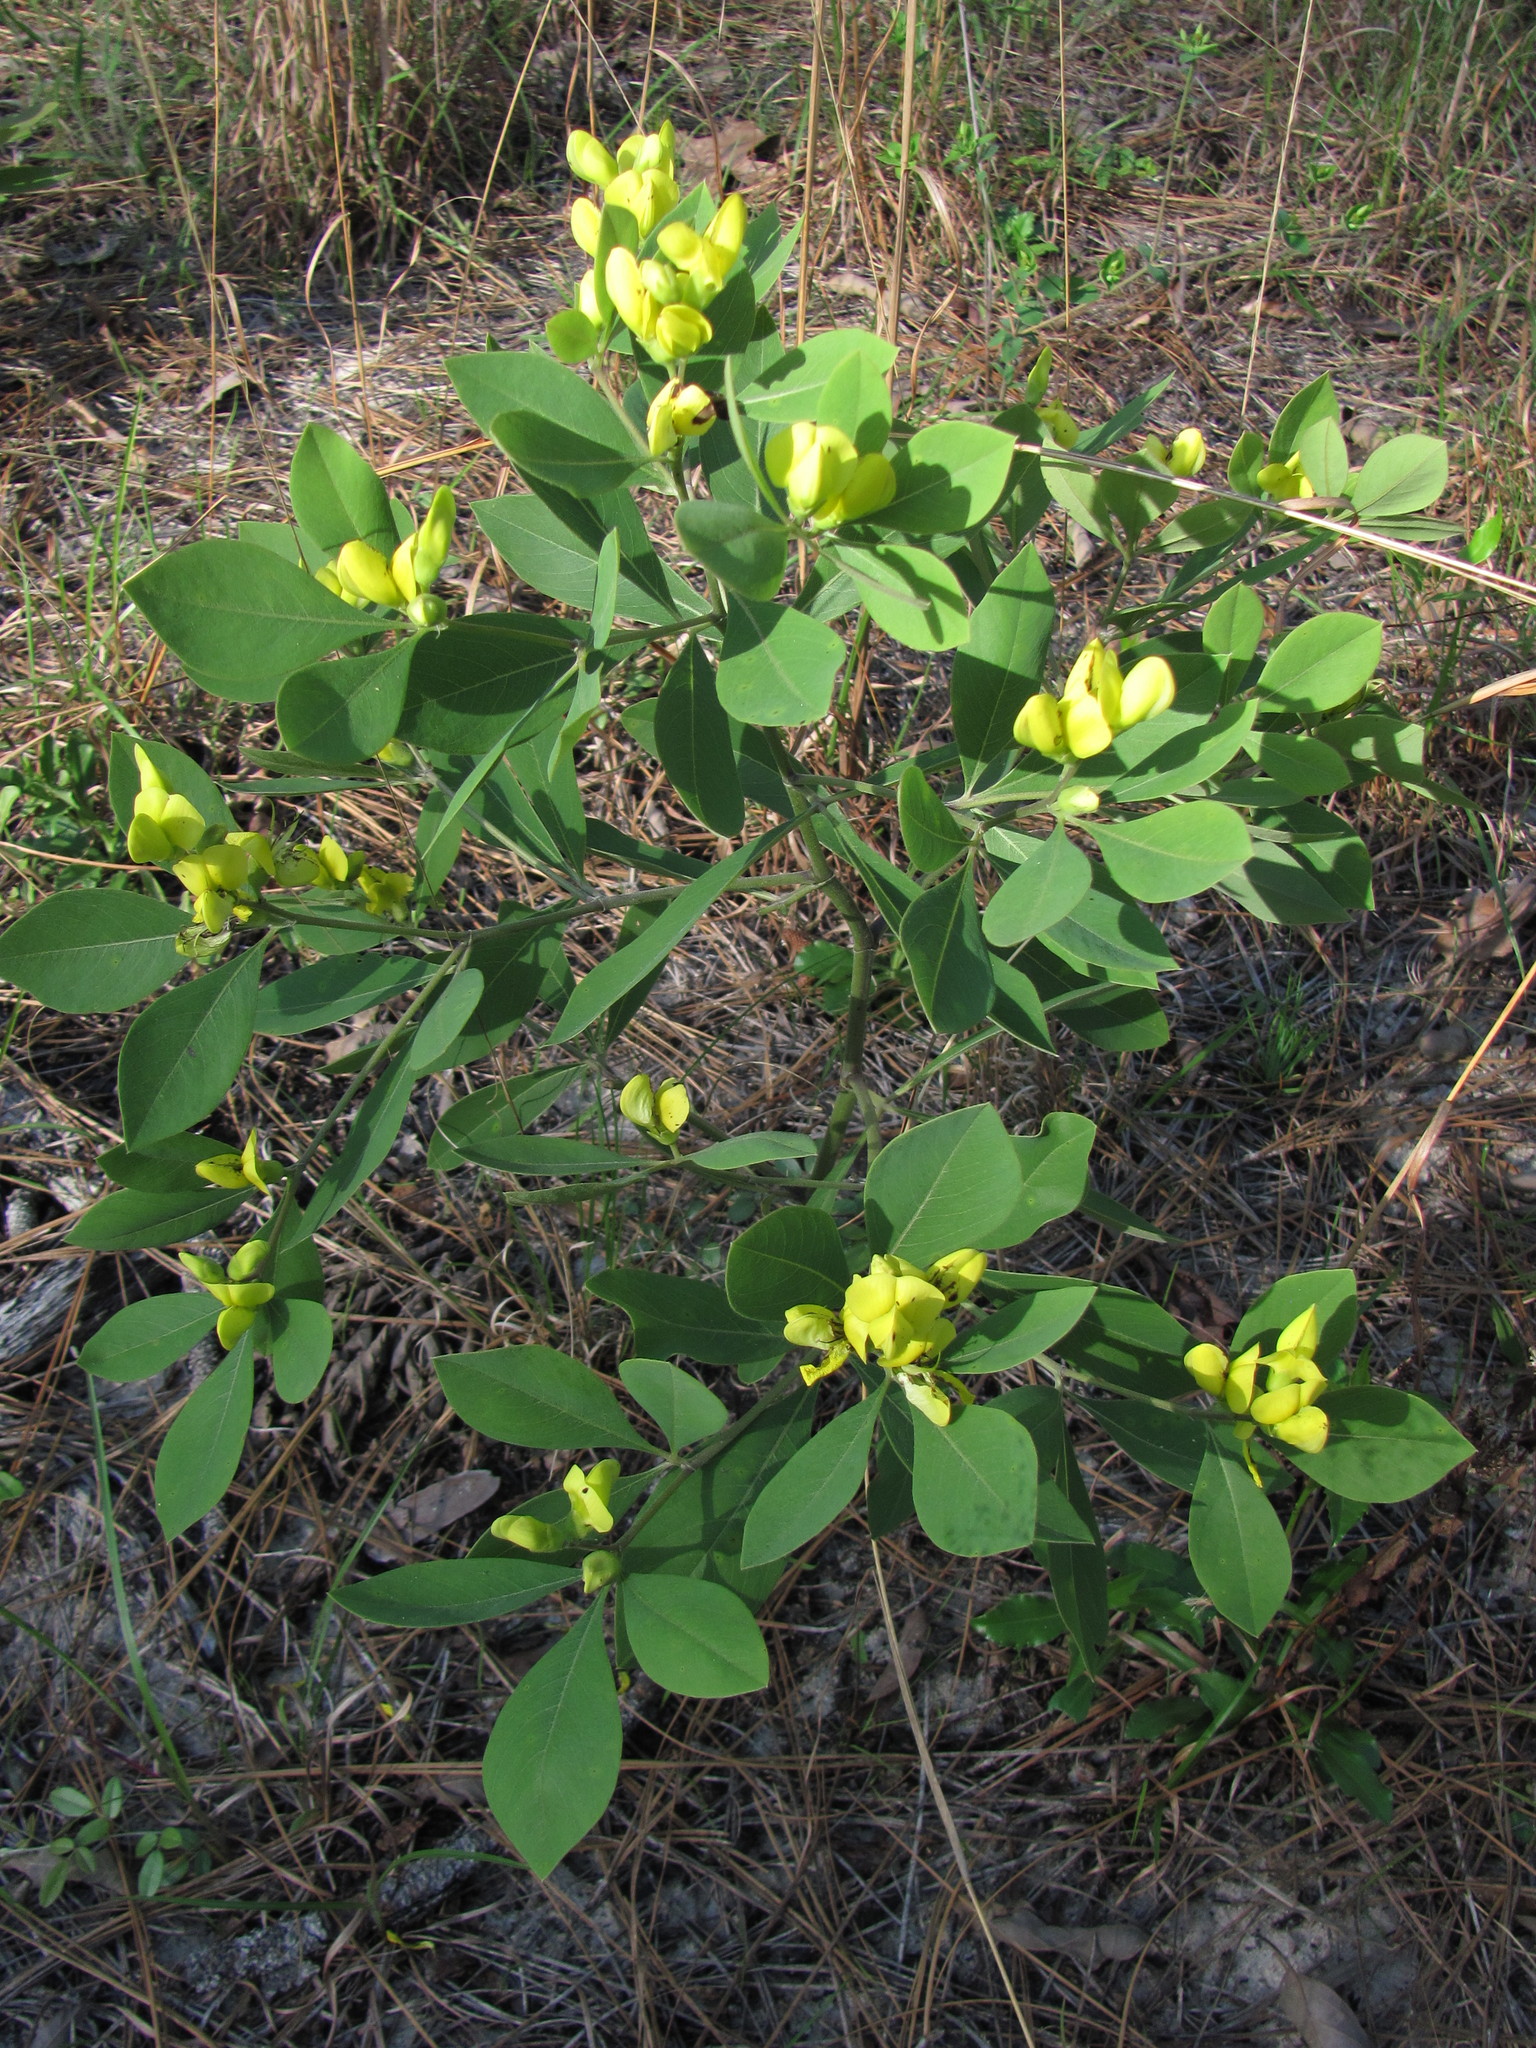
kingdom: Plantae
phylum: Tracheophyta
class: Magnoliopsida
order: Fabales
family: Fabaceae
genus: Baptisia
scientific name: Baptisia lanceolata
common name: Gopherweed
